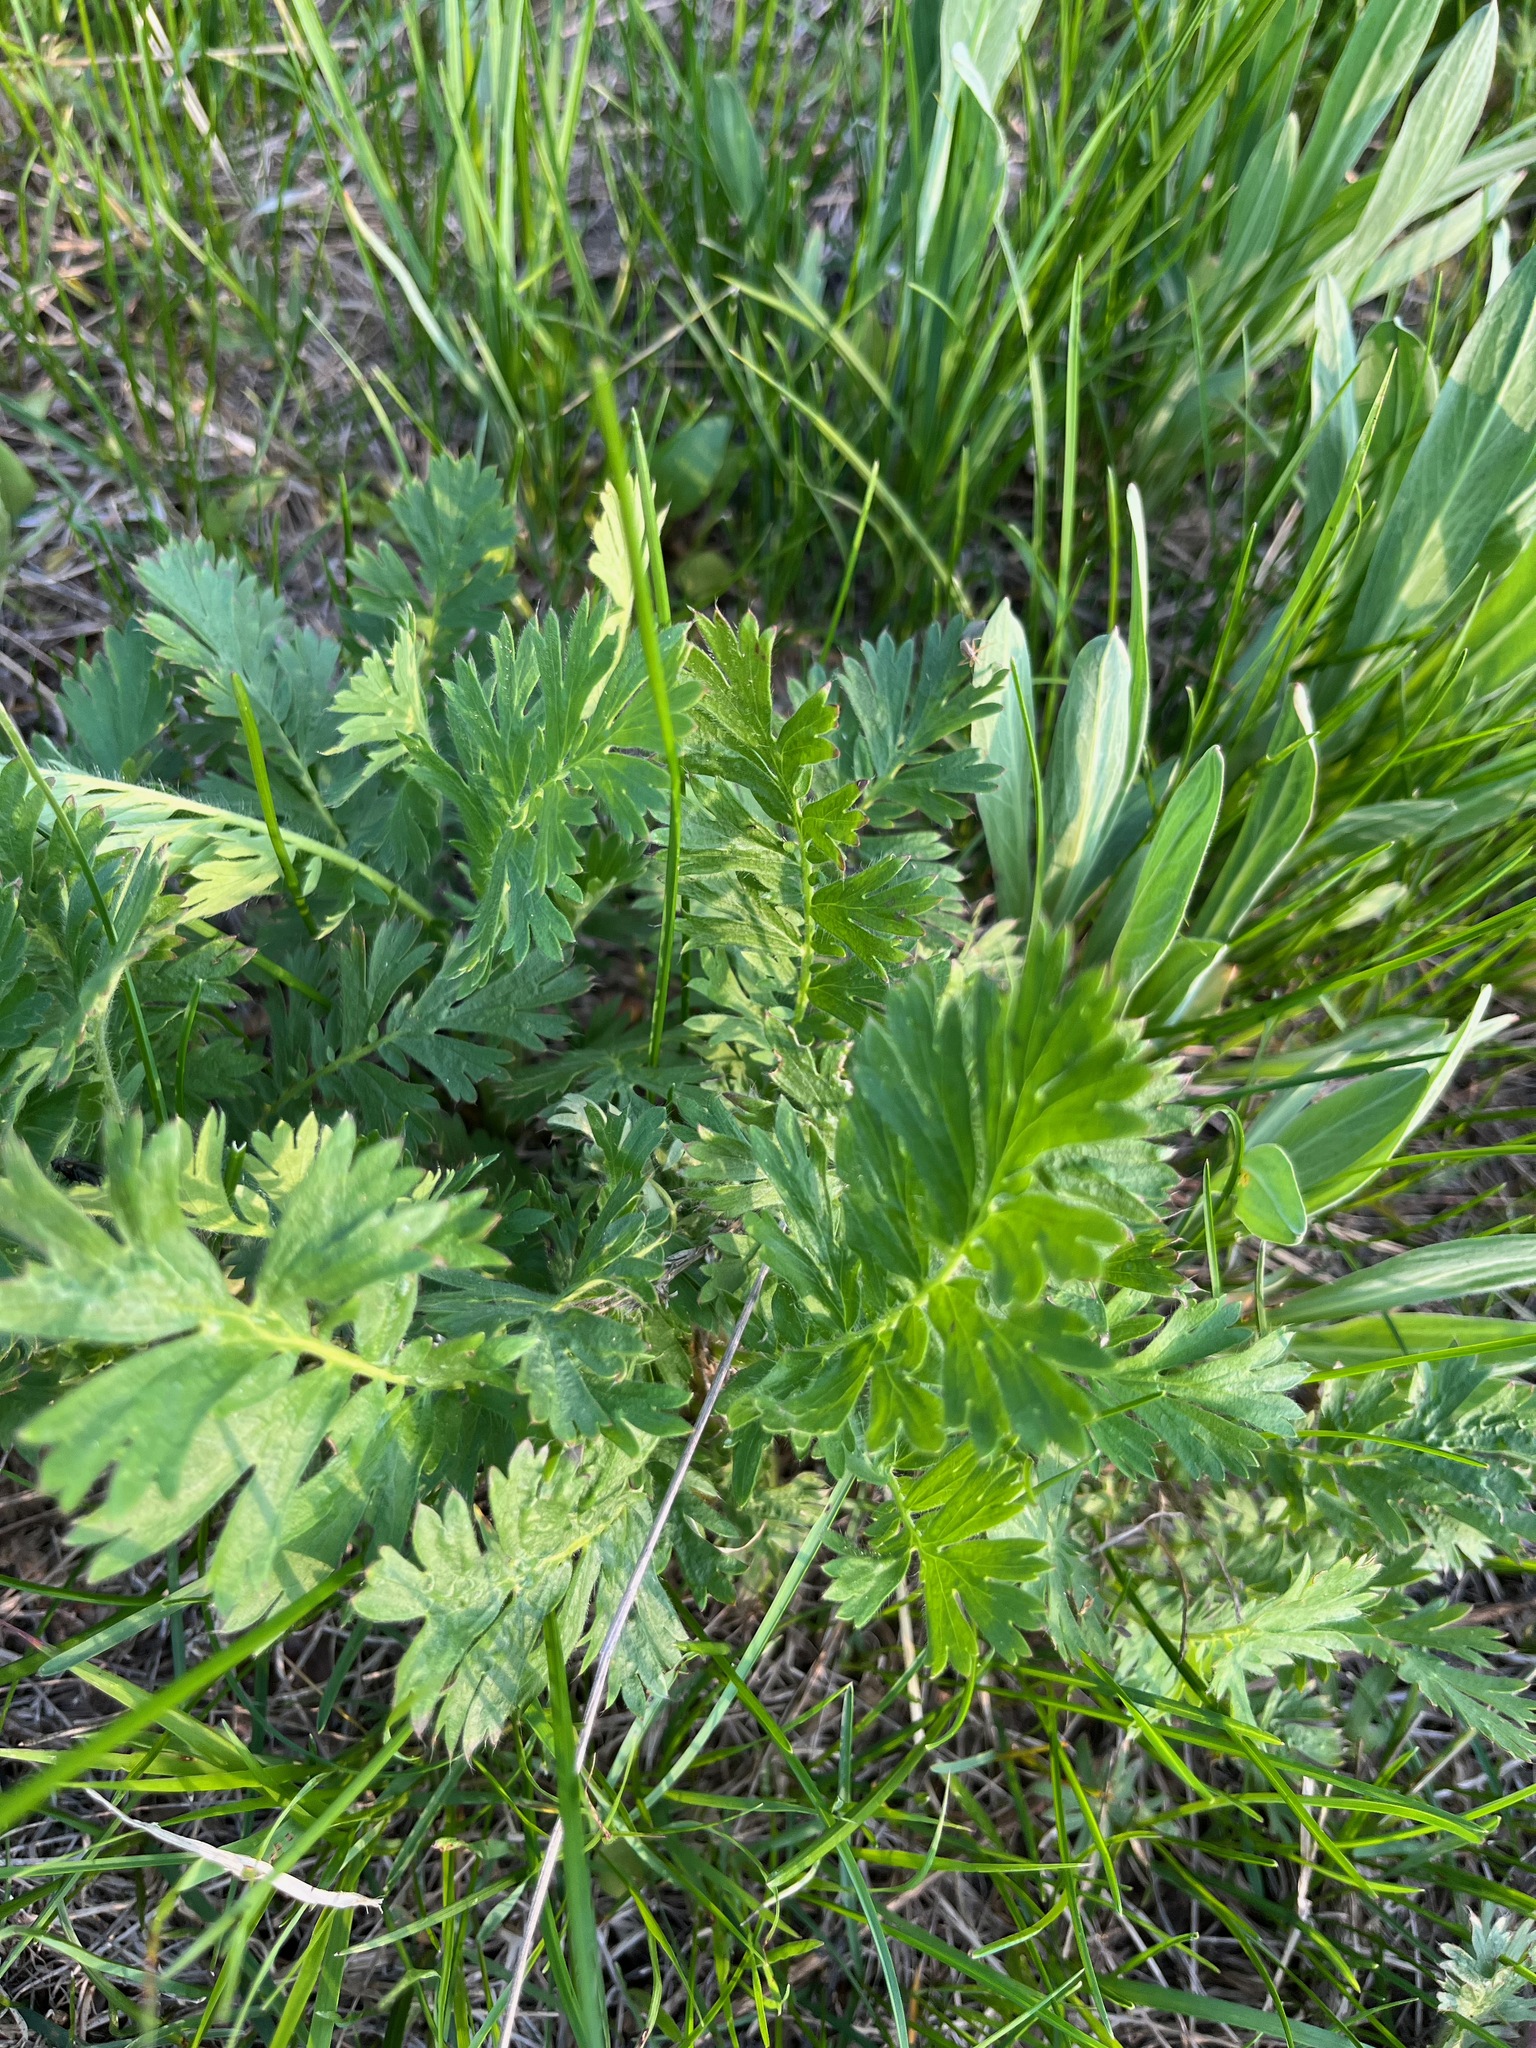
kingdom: Plantae
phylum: Tracheophyta
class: Magnoliopsida
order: Rosales
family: Rosaceae
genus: Geum
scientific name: Geum triflorum
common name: Old man's whiskers
